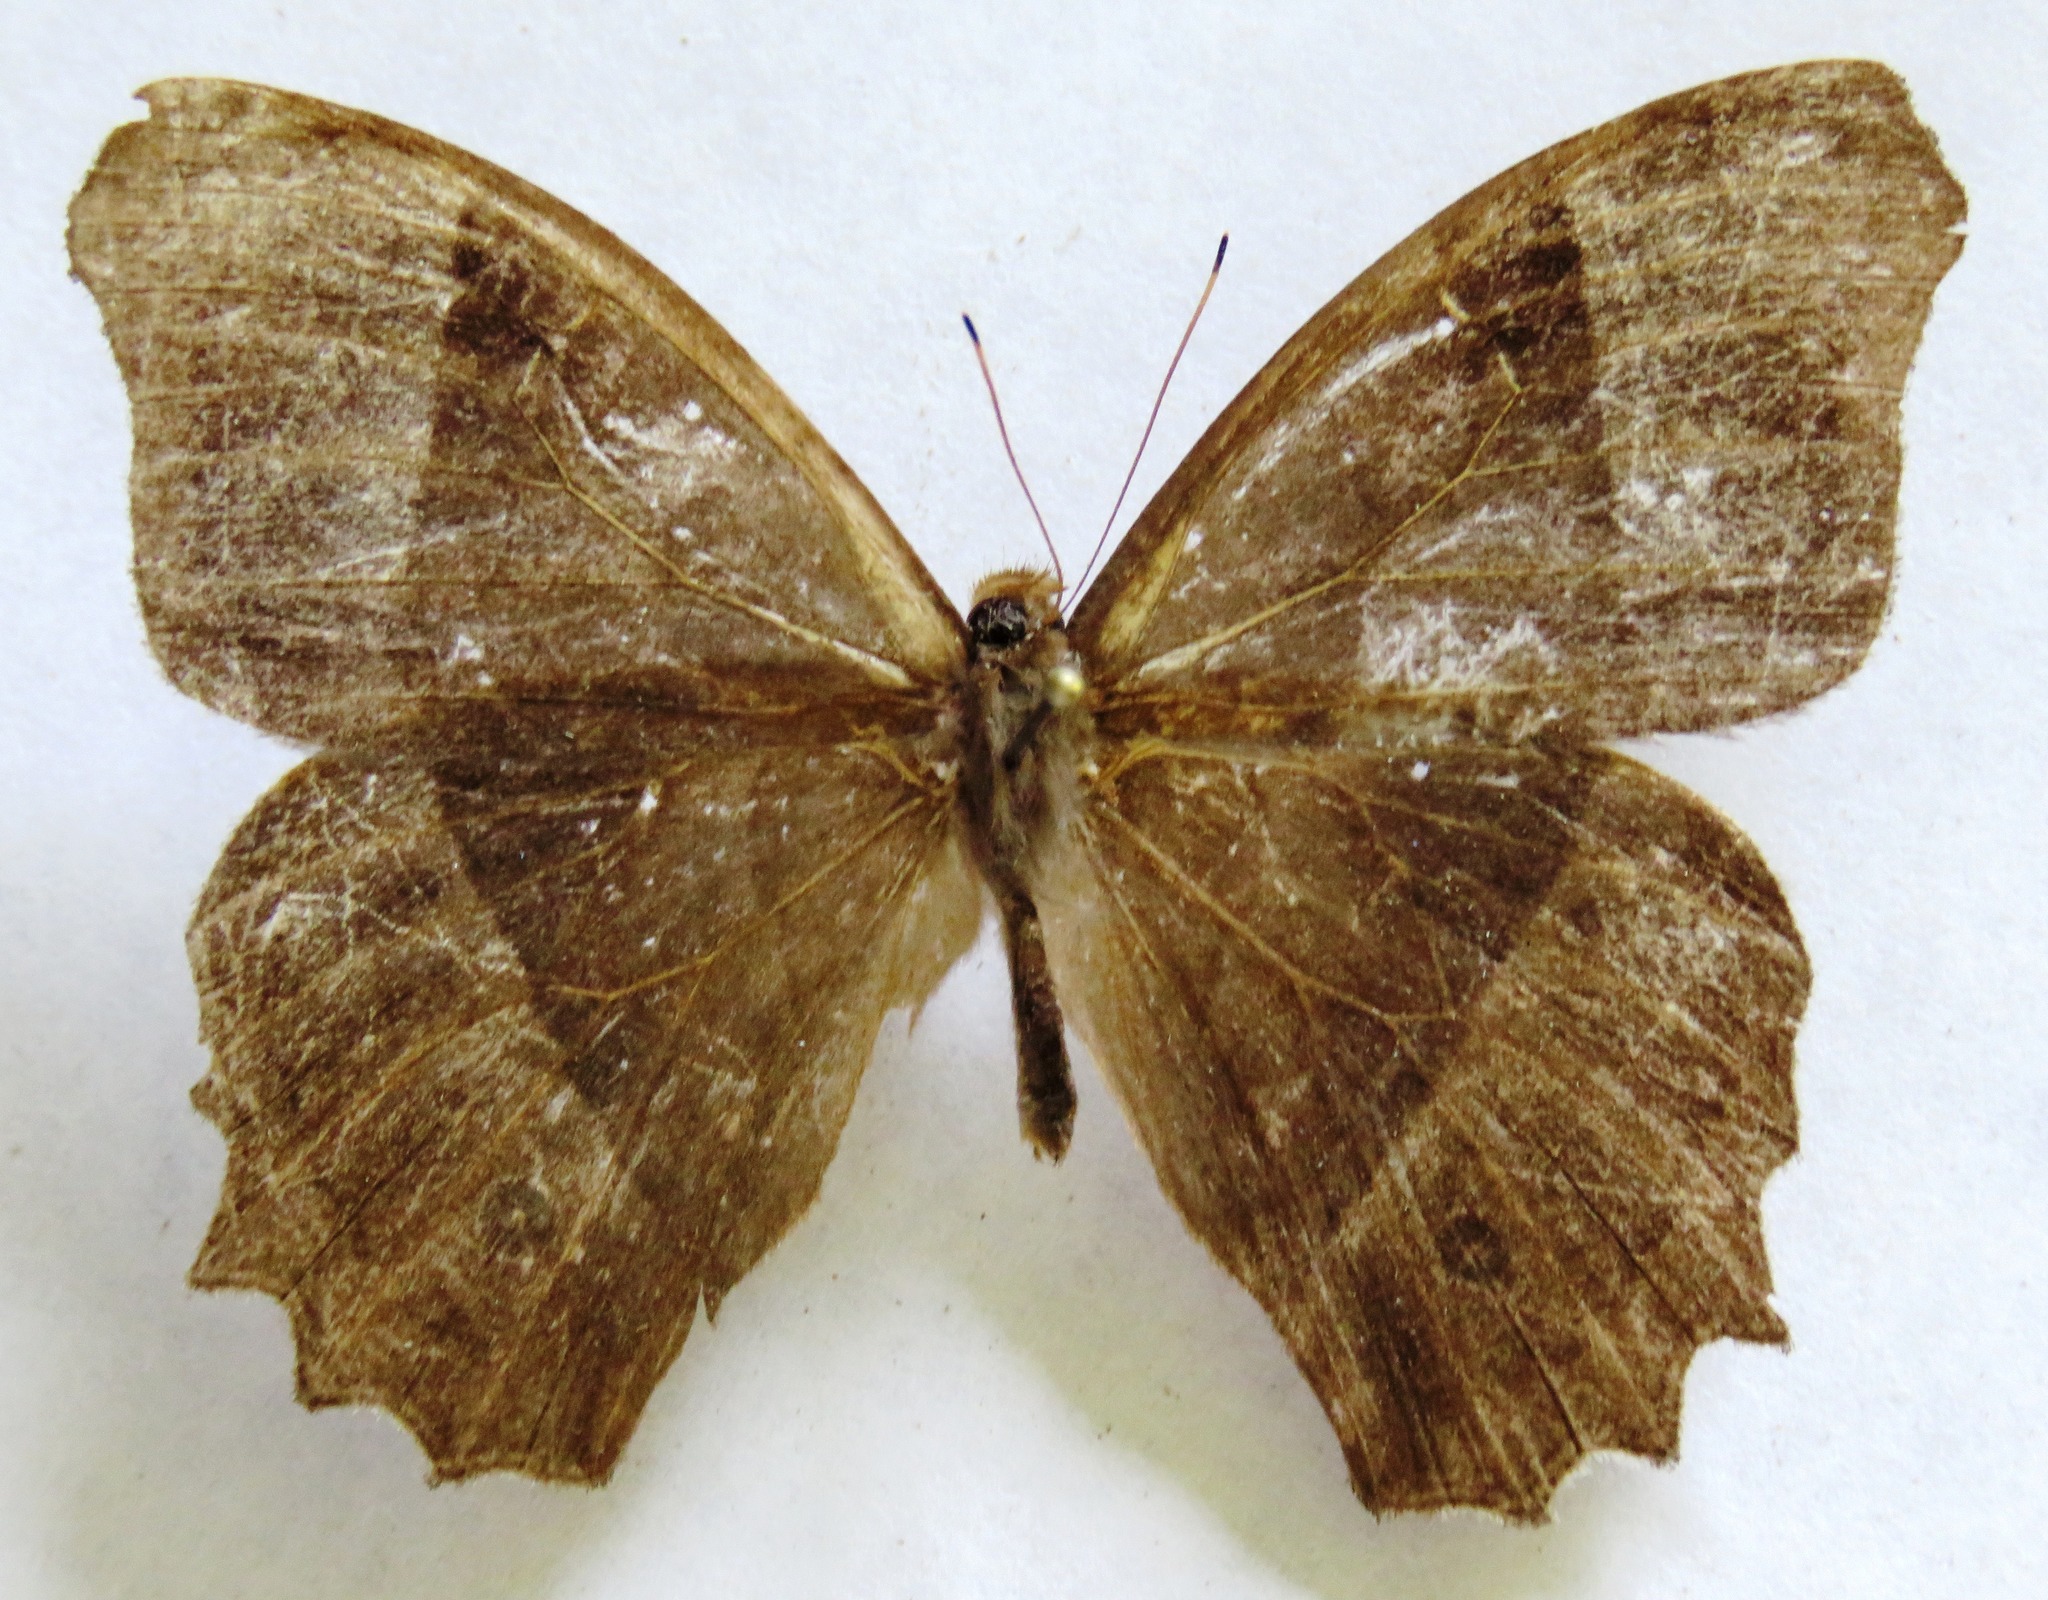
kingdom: Animalia
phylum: Arthropoda
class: Insecta
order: Lepidoptera
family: Nymphalidae
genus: Taygetis
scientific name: Taygetis andromeda
